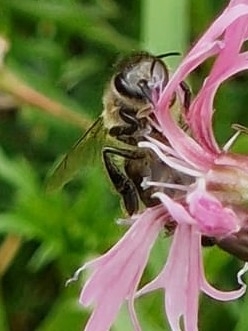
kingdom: Animalia
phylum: Arthropoda
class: Insecta
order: Hymenoptera
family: Apidae
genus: Apis
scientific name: Apis mellifera
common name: Honey bee
